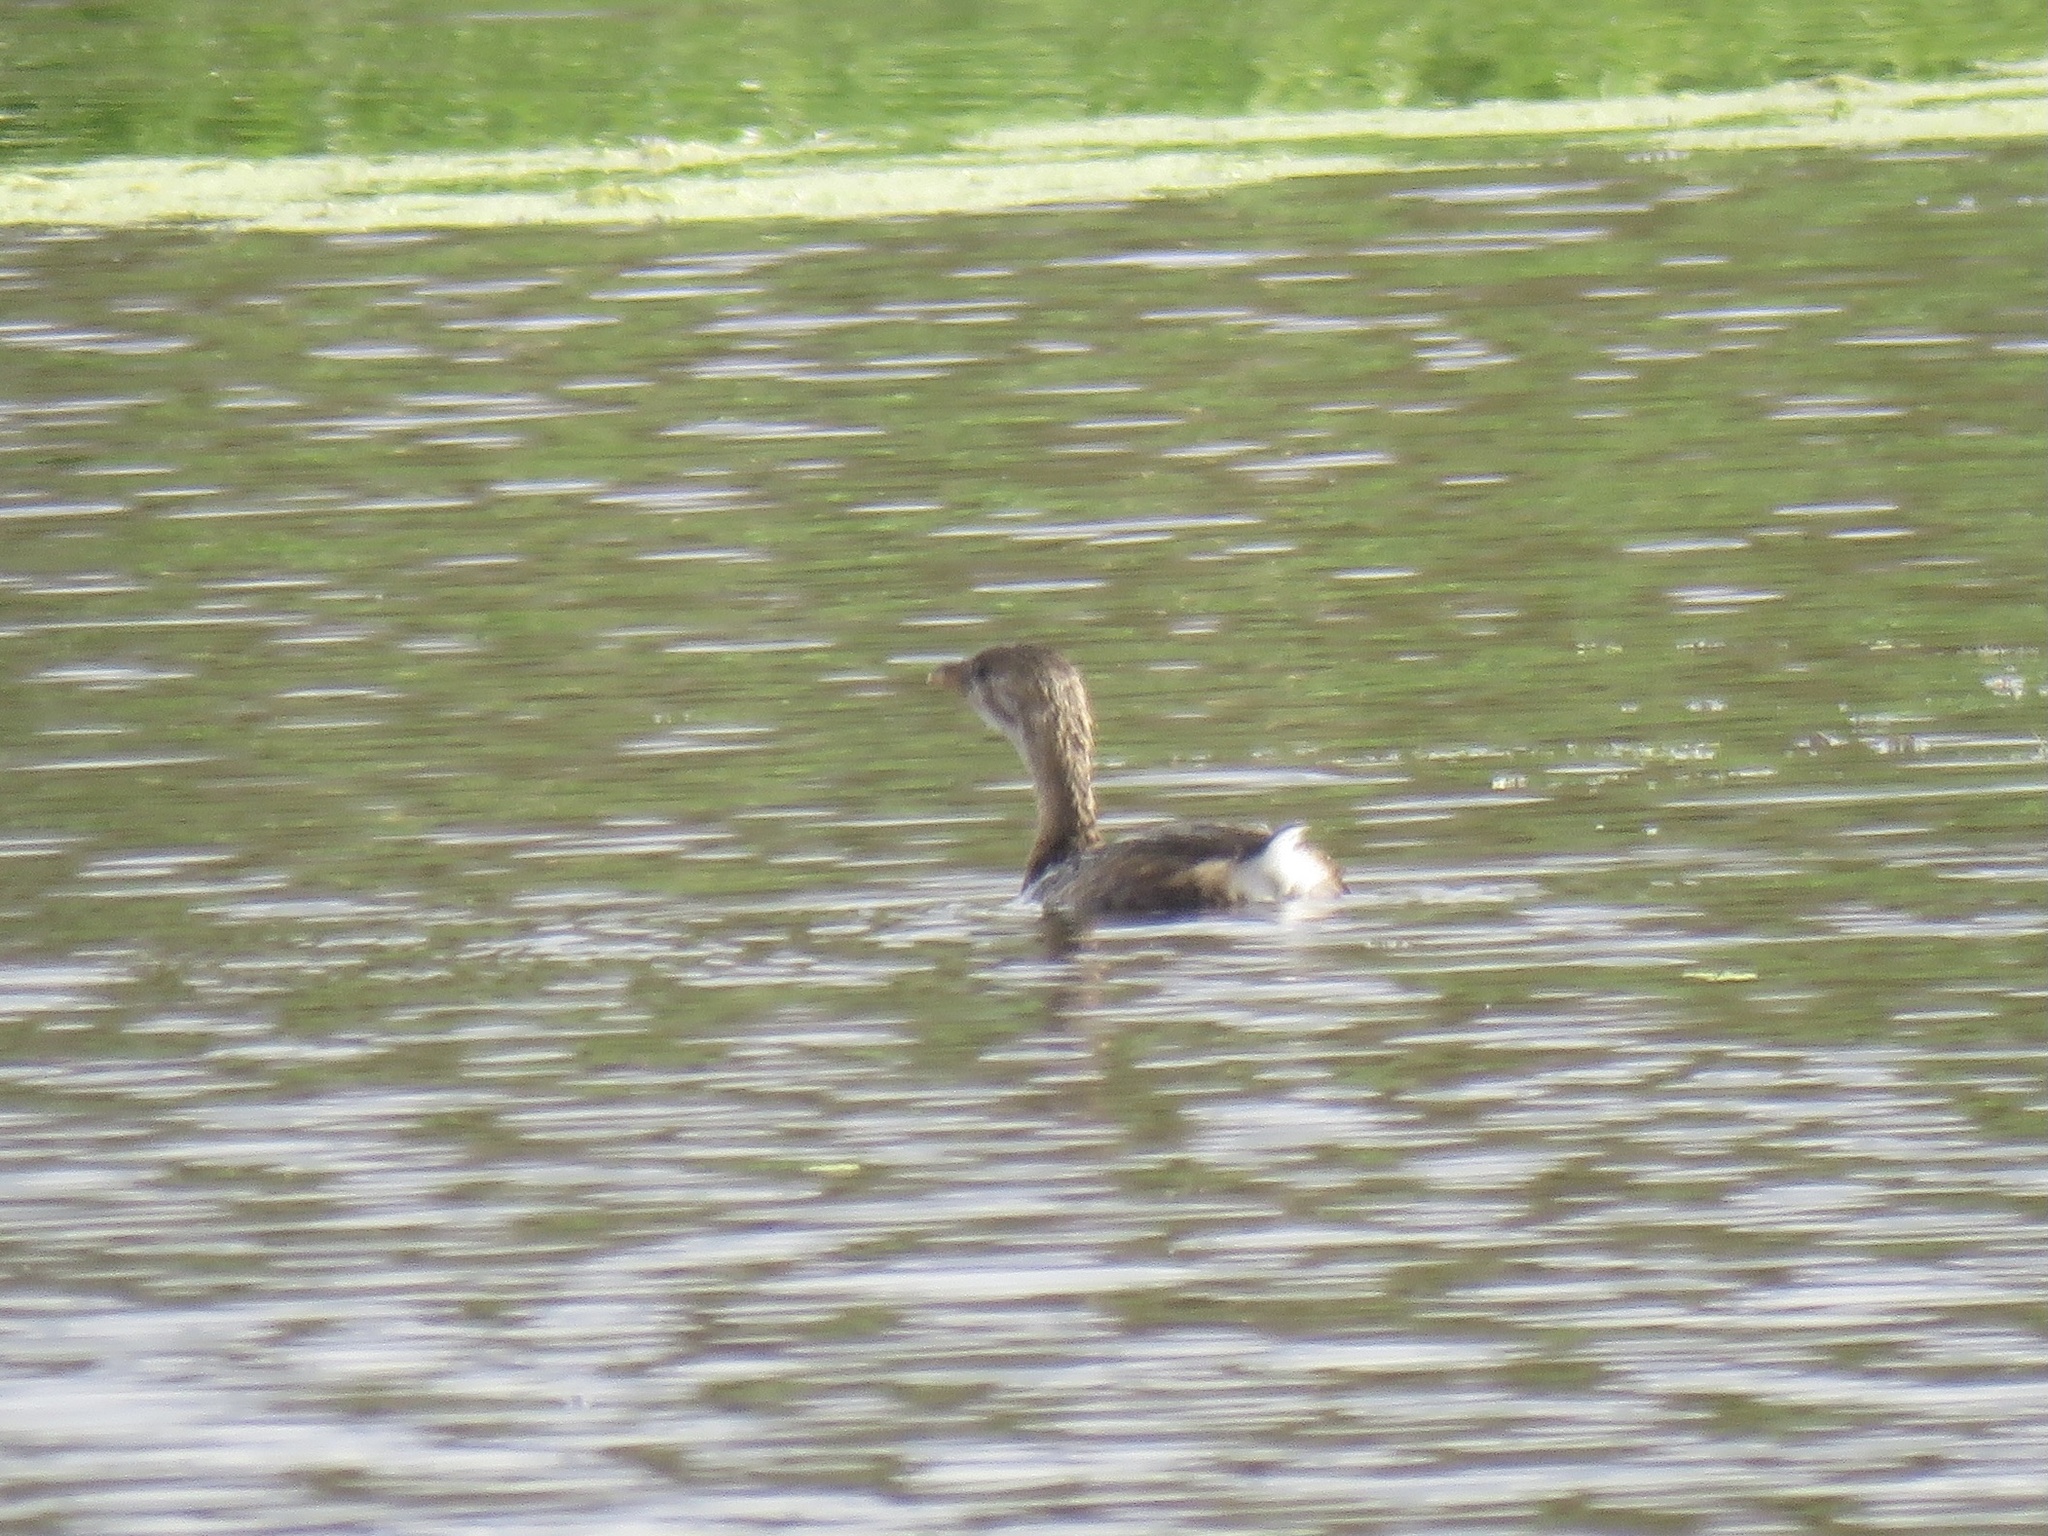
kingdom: Animalia
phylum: Chordata
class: Aves
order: Podicipediformes
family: Podicipedidae
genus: Podilymbus
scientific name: Podilymbus podiceps
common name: Pied-billed grebe
